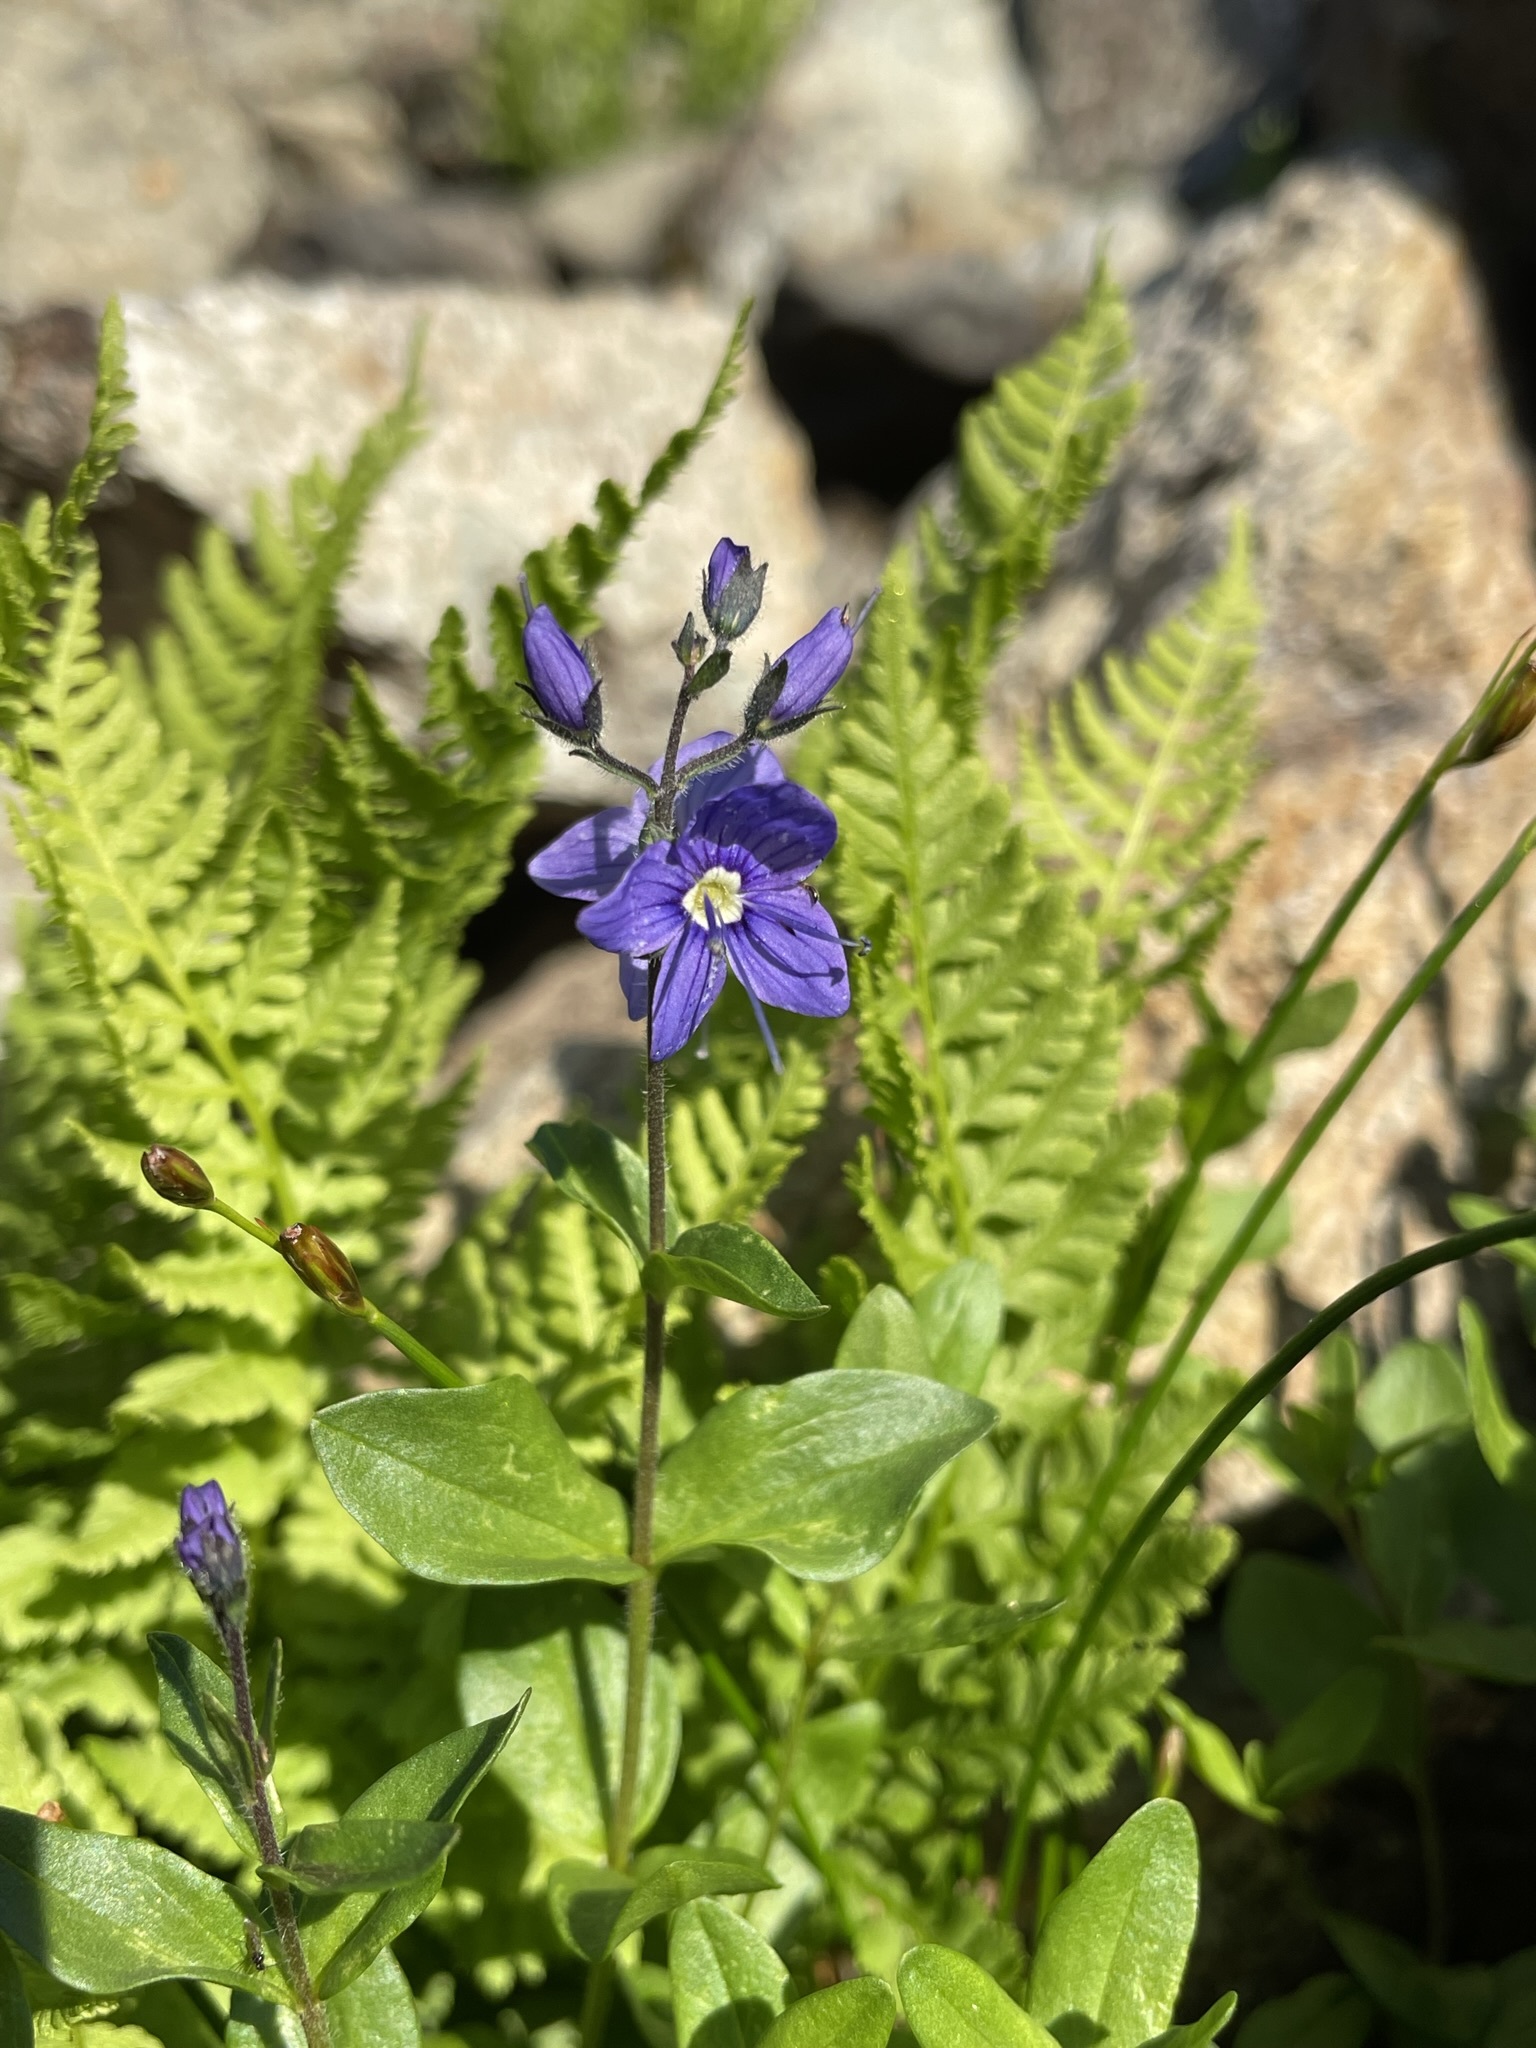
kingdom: Plantae
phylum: Tracheophyta
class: Magnoliopsida
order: Lamiales
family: Plantaginaceae
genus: Veronica
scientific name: Veronica cusickii
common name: Cusick's speedwell
